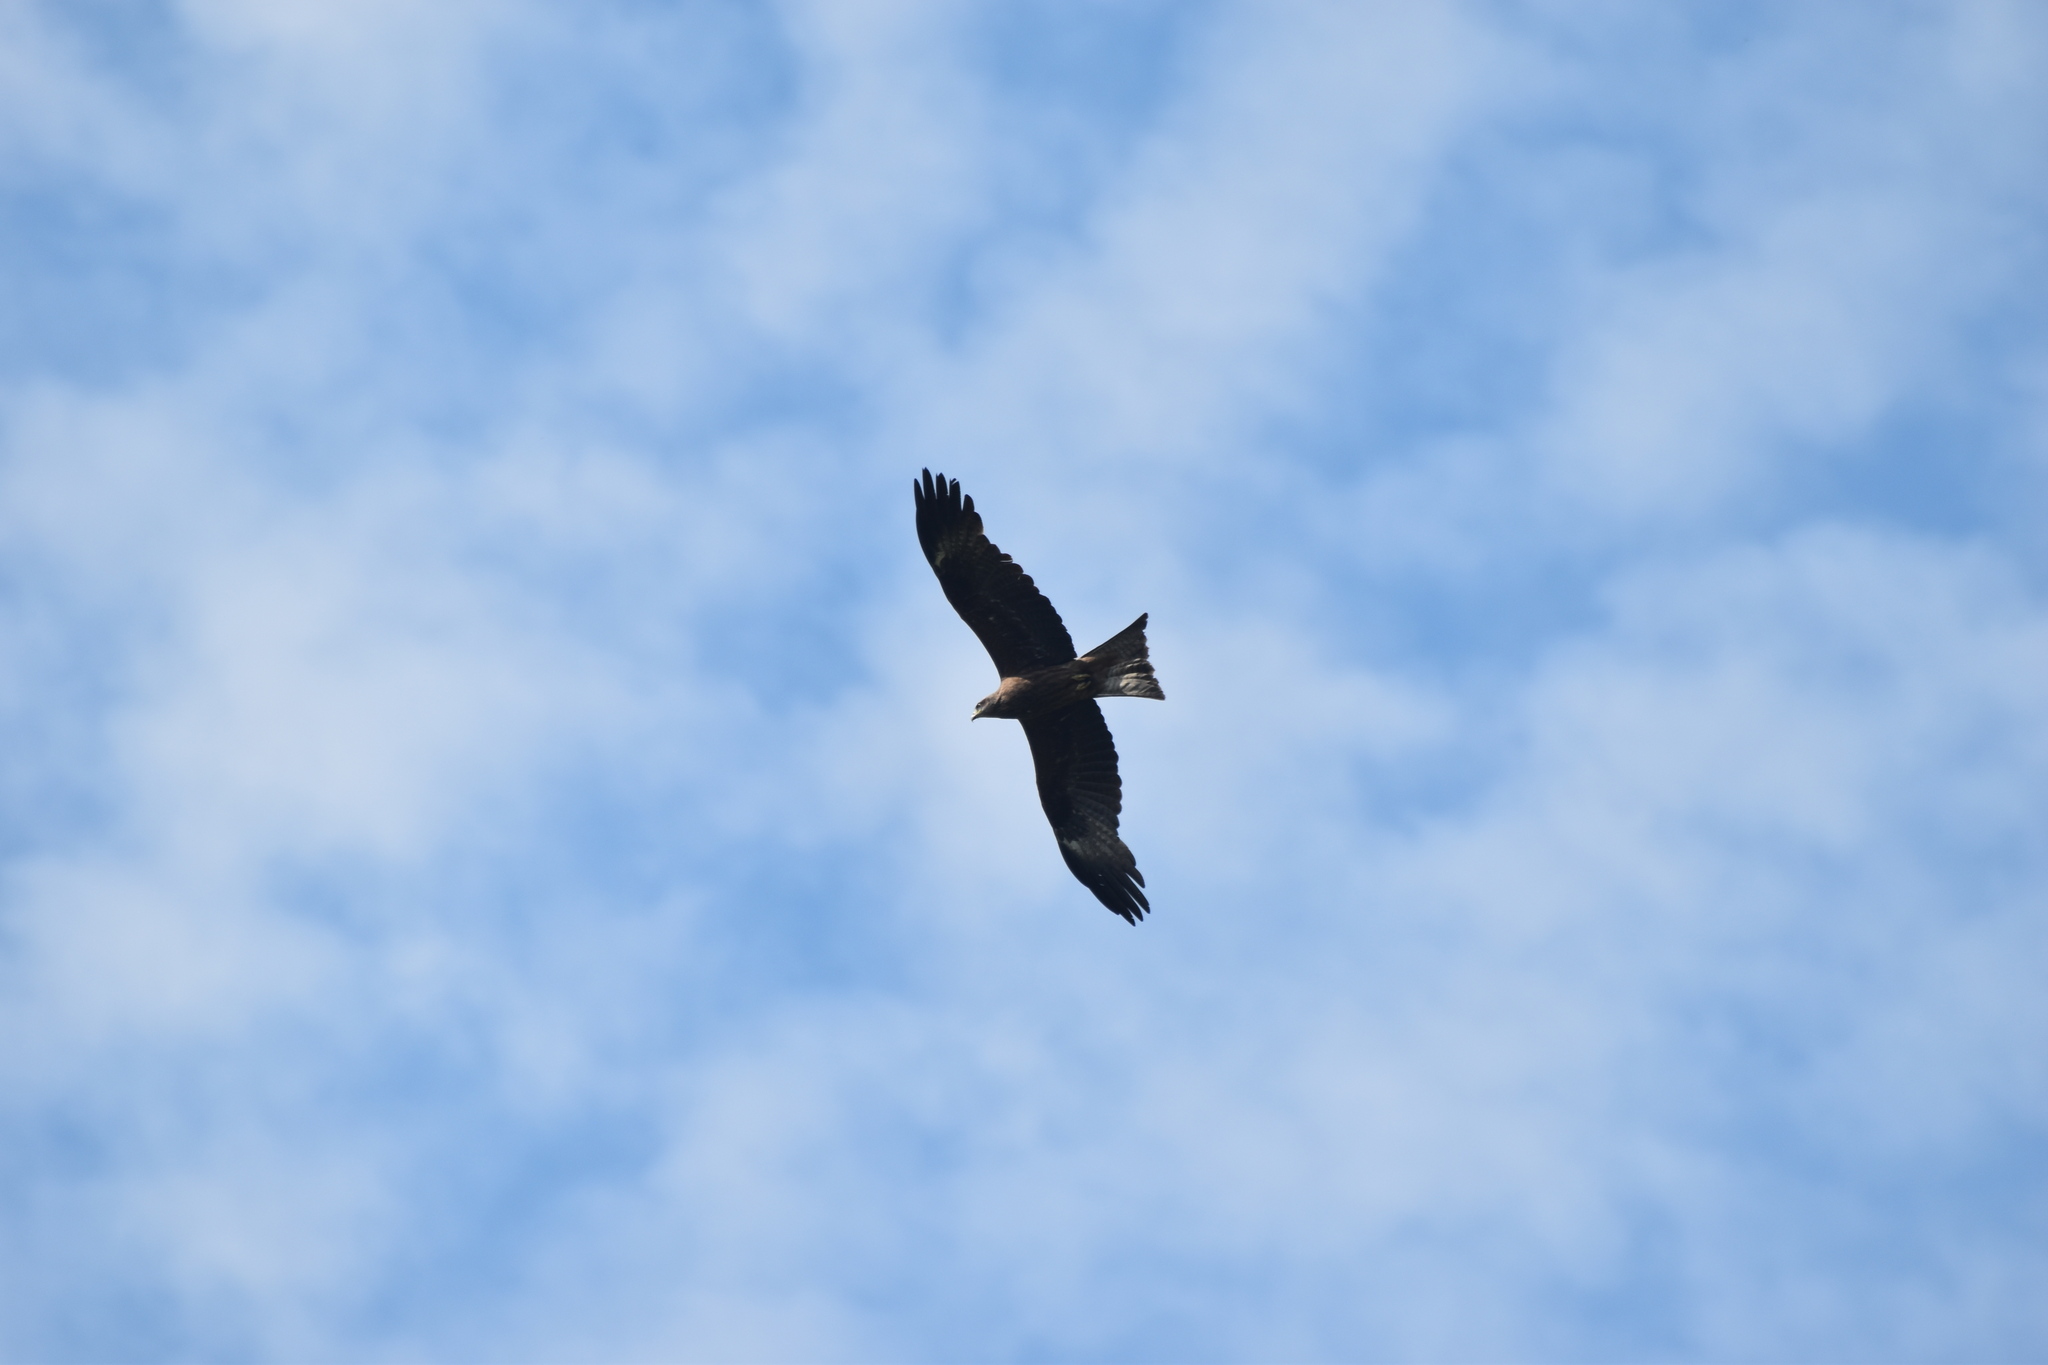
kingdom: Animalia
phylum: Chordata
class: Aves
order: Accipitriformes
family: Accipitridae
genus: Milvus
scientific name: Milvus migrans
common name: Black kite
